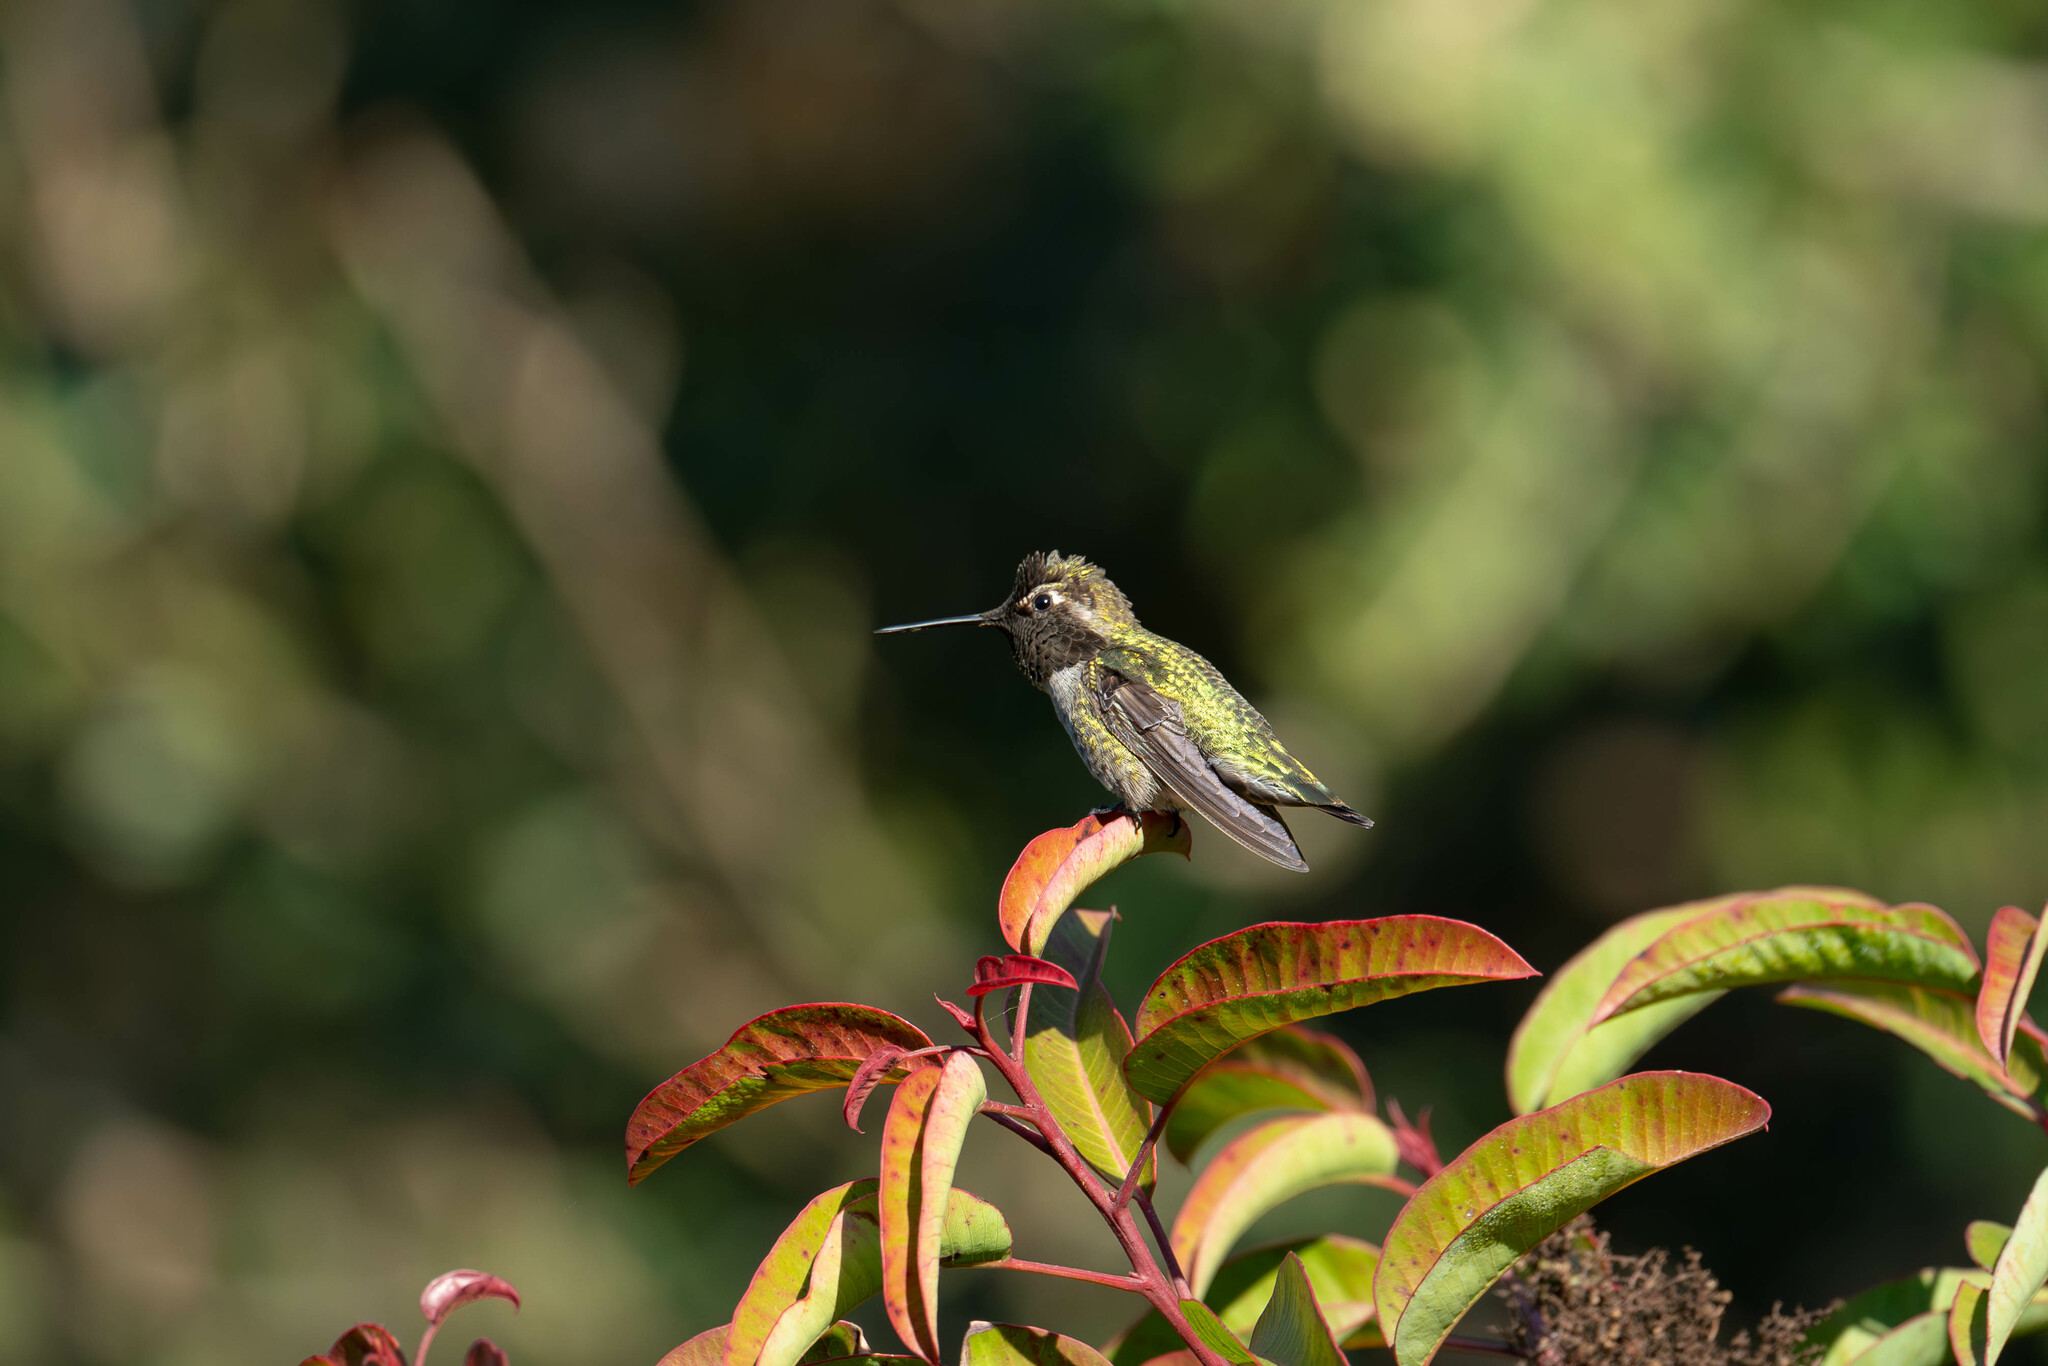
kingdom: Animalia
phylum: Chordata
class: Aves
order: Apodiformes
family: Trochilidae
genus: Calypte
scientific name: Calypte anna
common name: Anna's hummingbird
